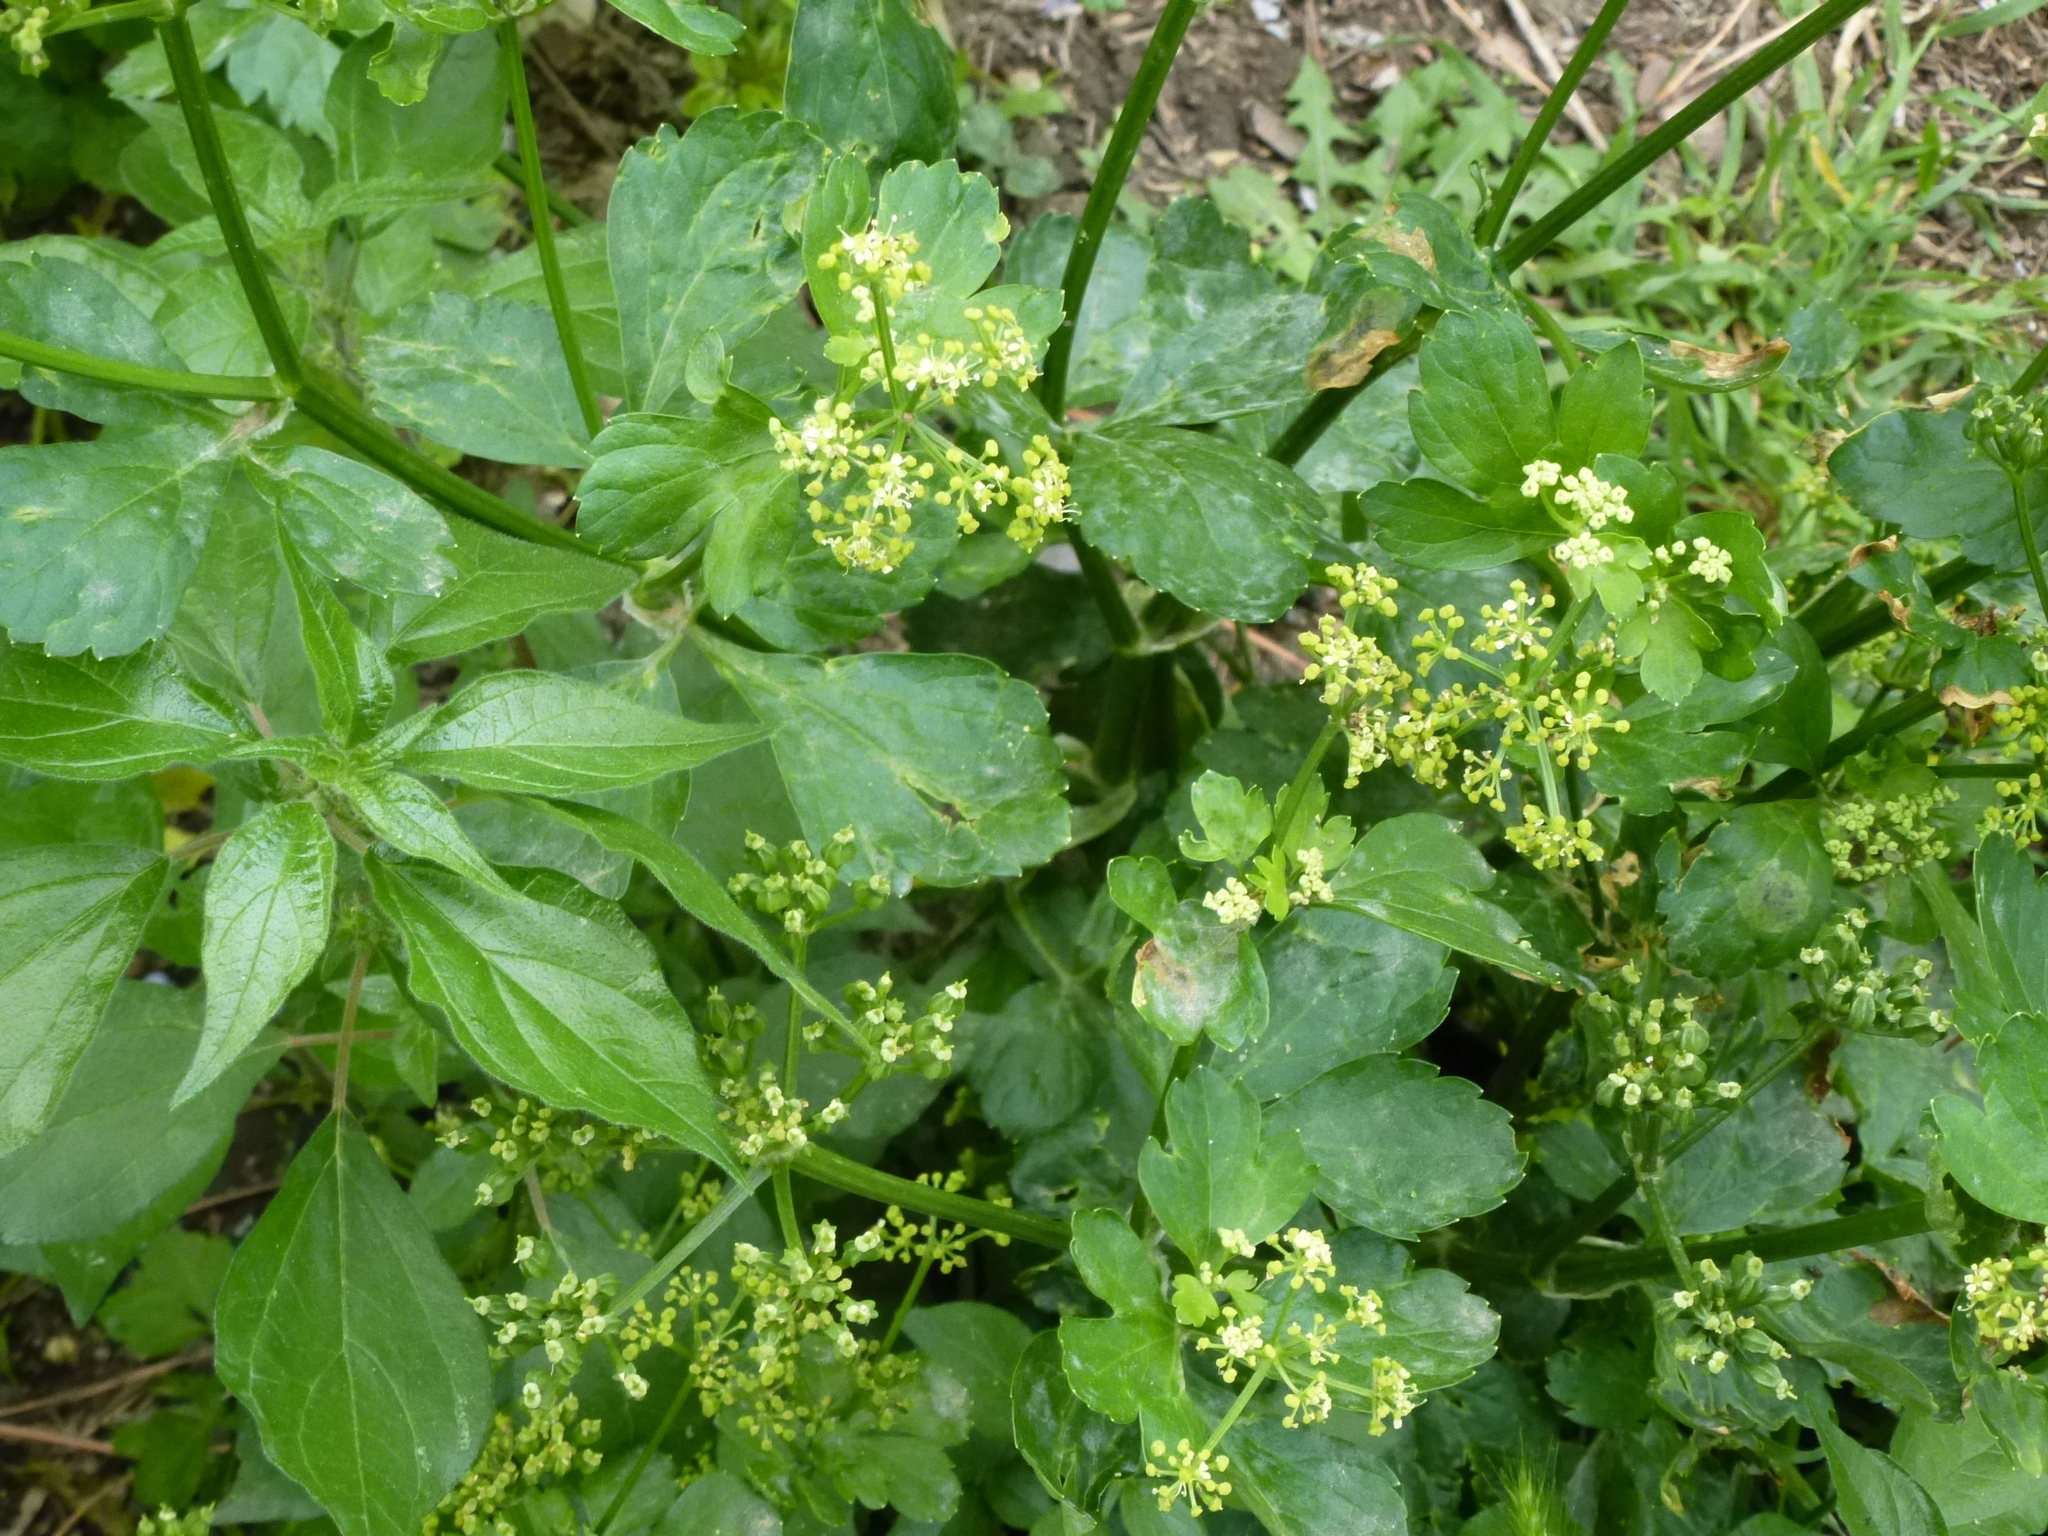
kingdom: Plantae
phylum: Tracheophyta
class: Magnoliopsida
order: Apiales
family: Apiaceae
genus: Smyrnium
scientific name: Smyrnium olusatrum
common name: Alexanders
